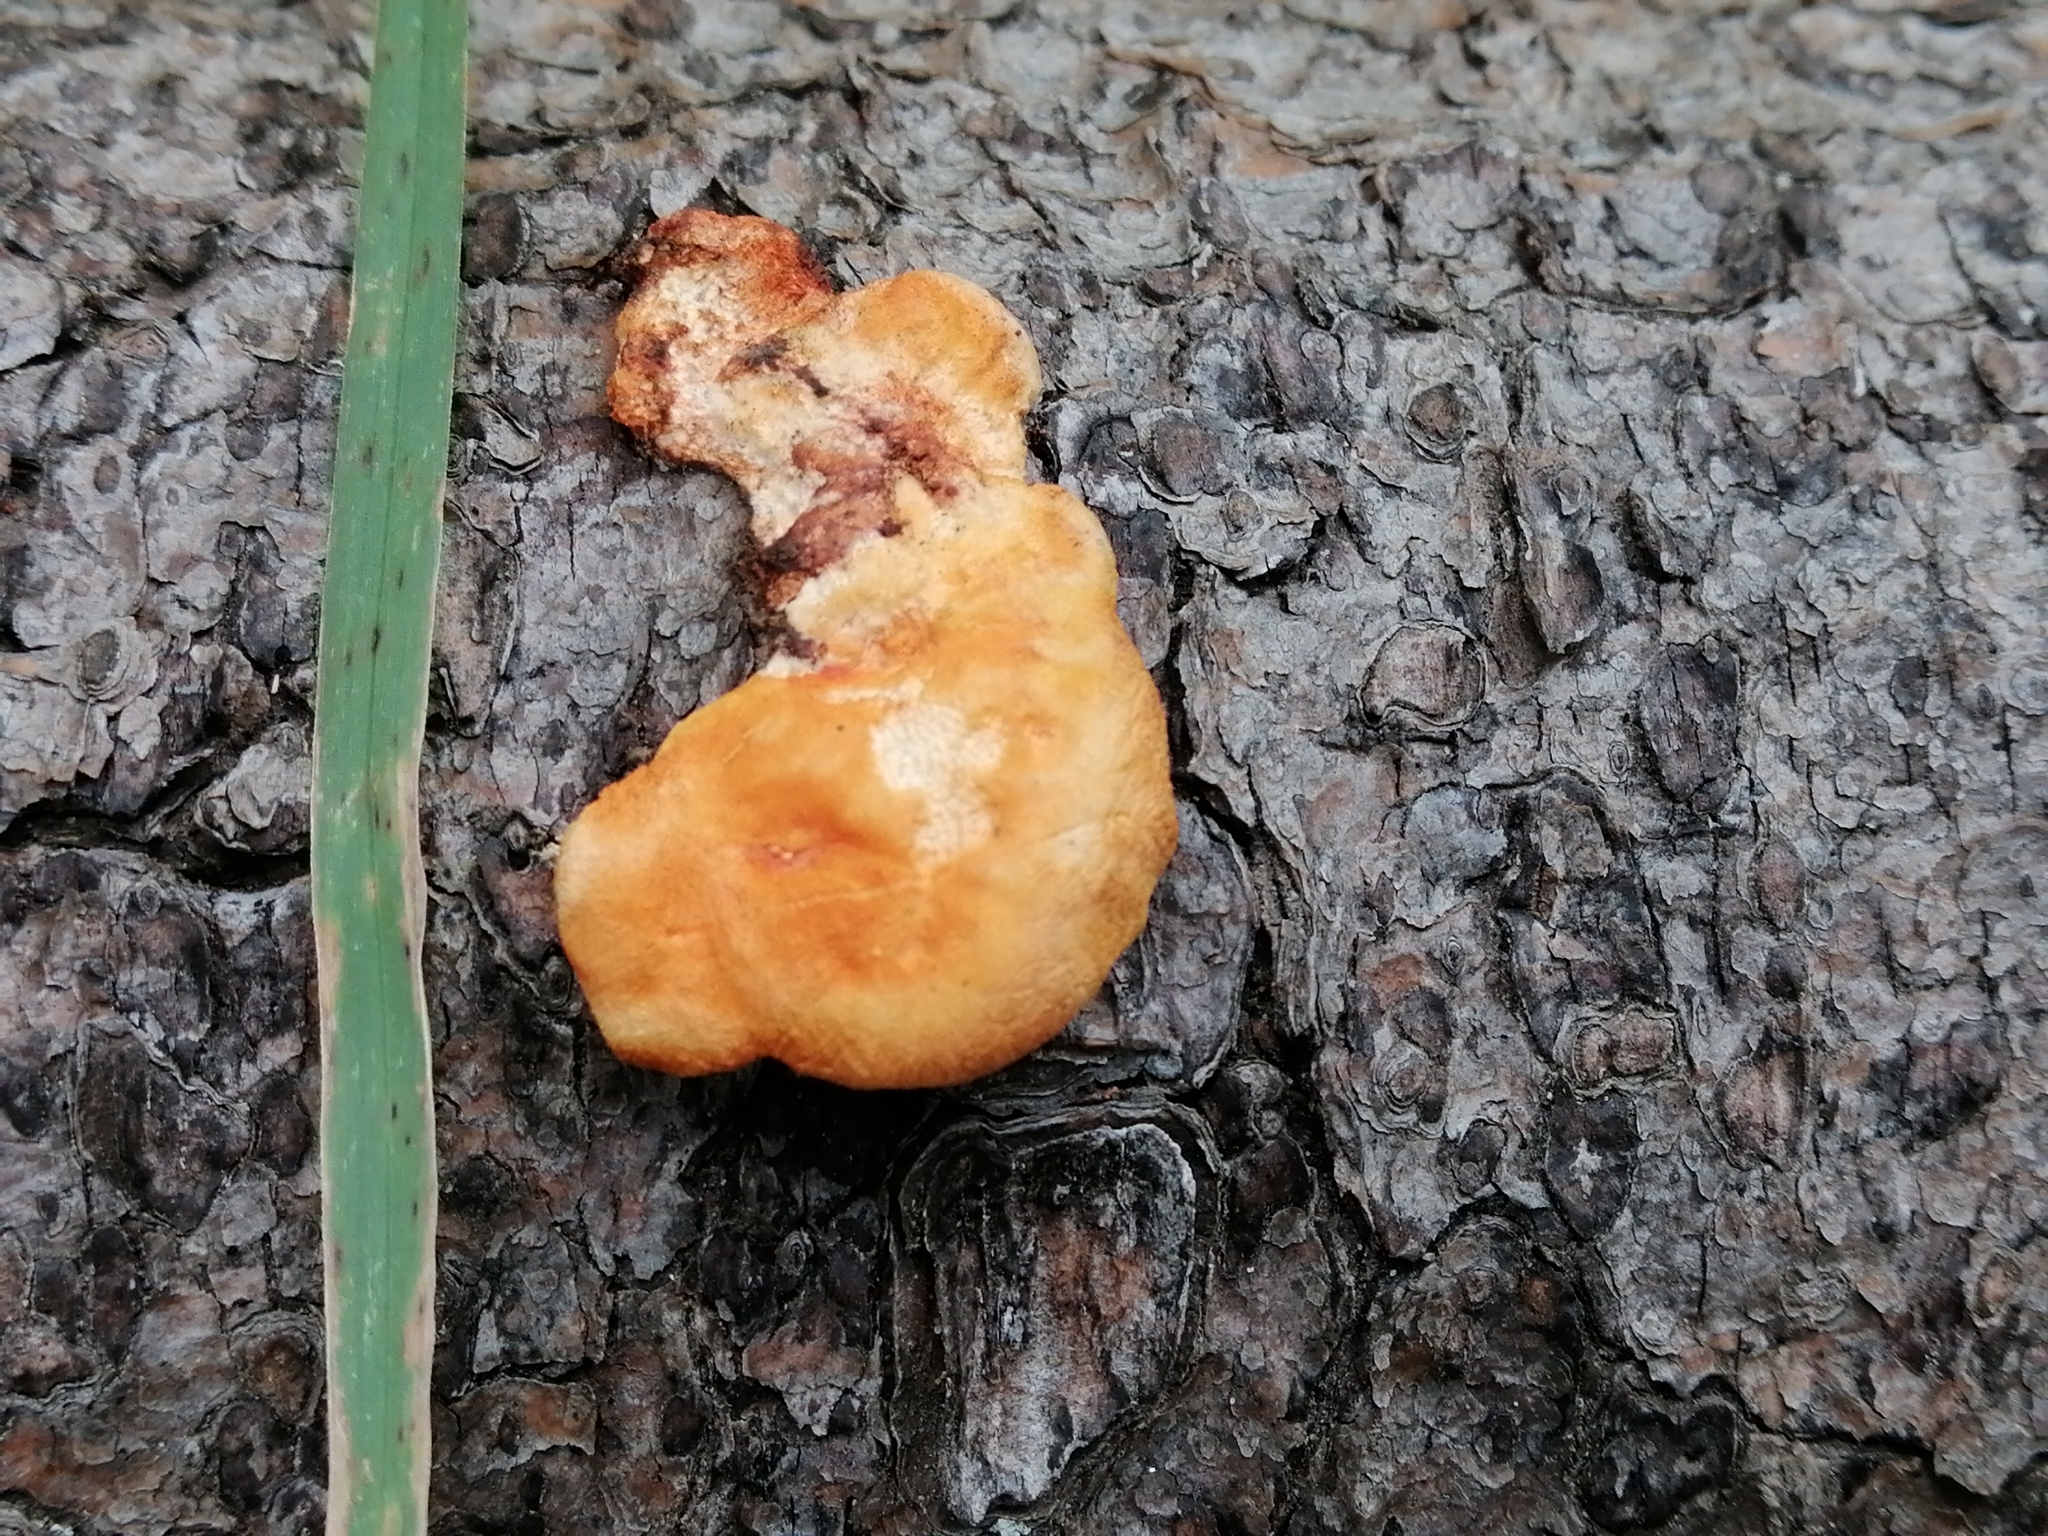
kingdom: Fungi
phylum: Basidiomycota
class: Agaricomycetes
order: Polyporales
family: Polyporaceae
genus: Trametes
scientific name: Trametes coccinea
